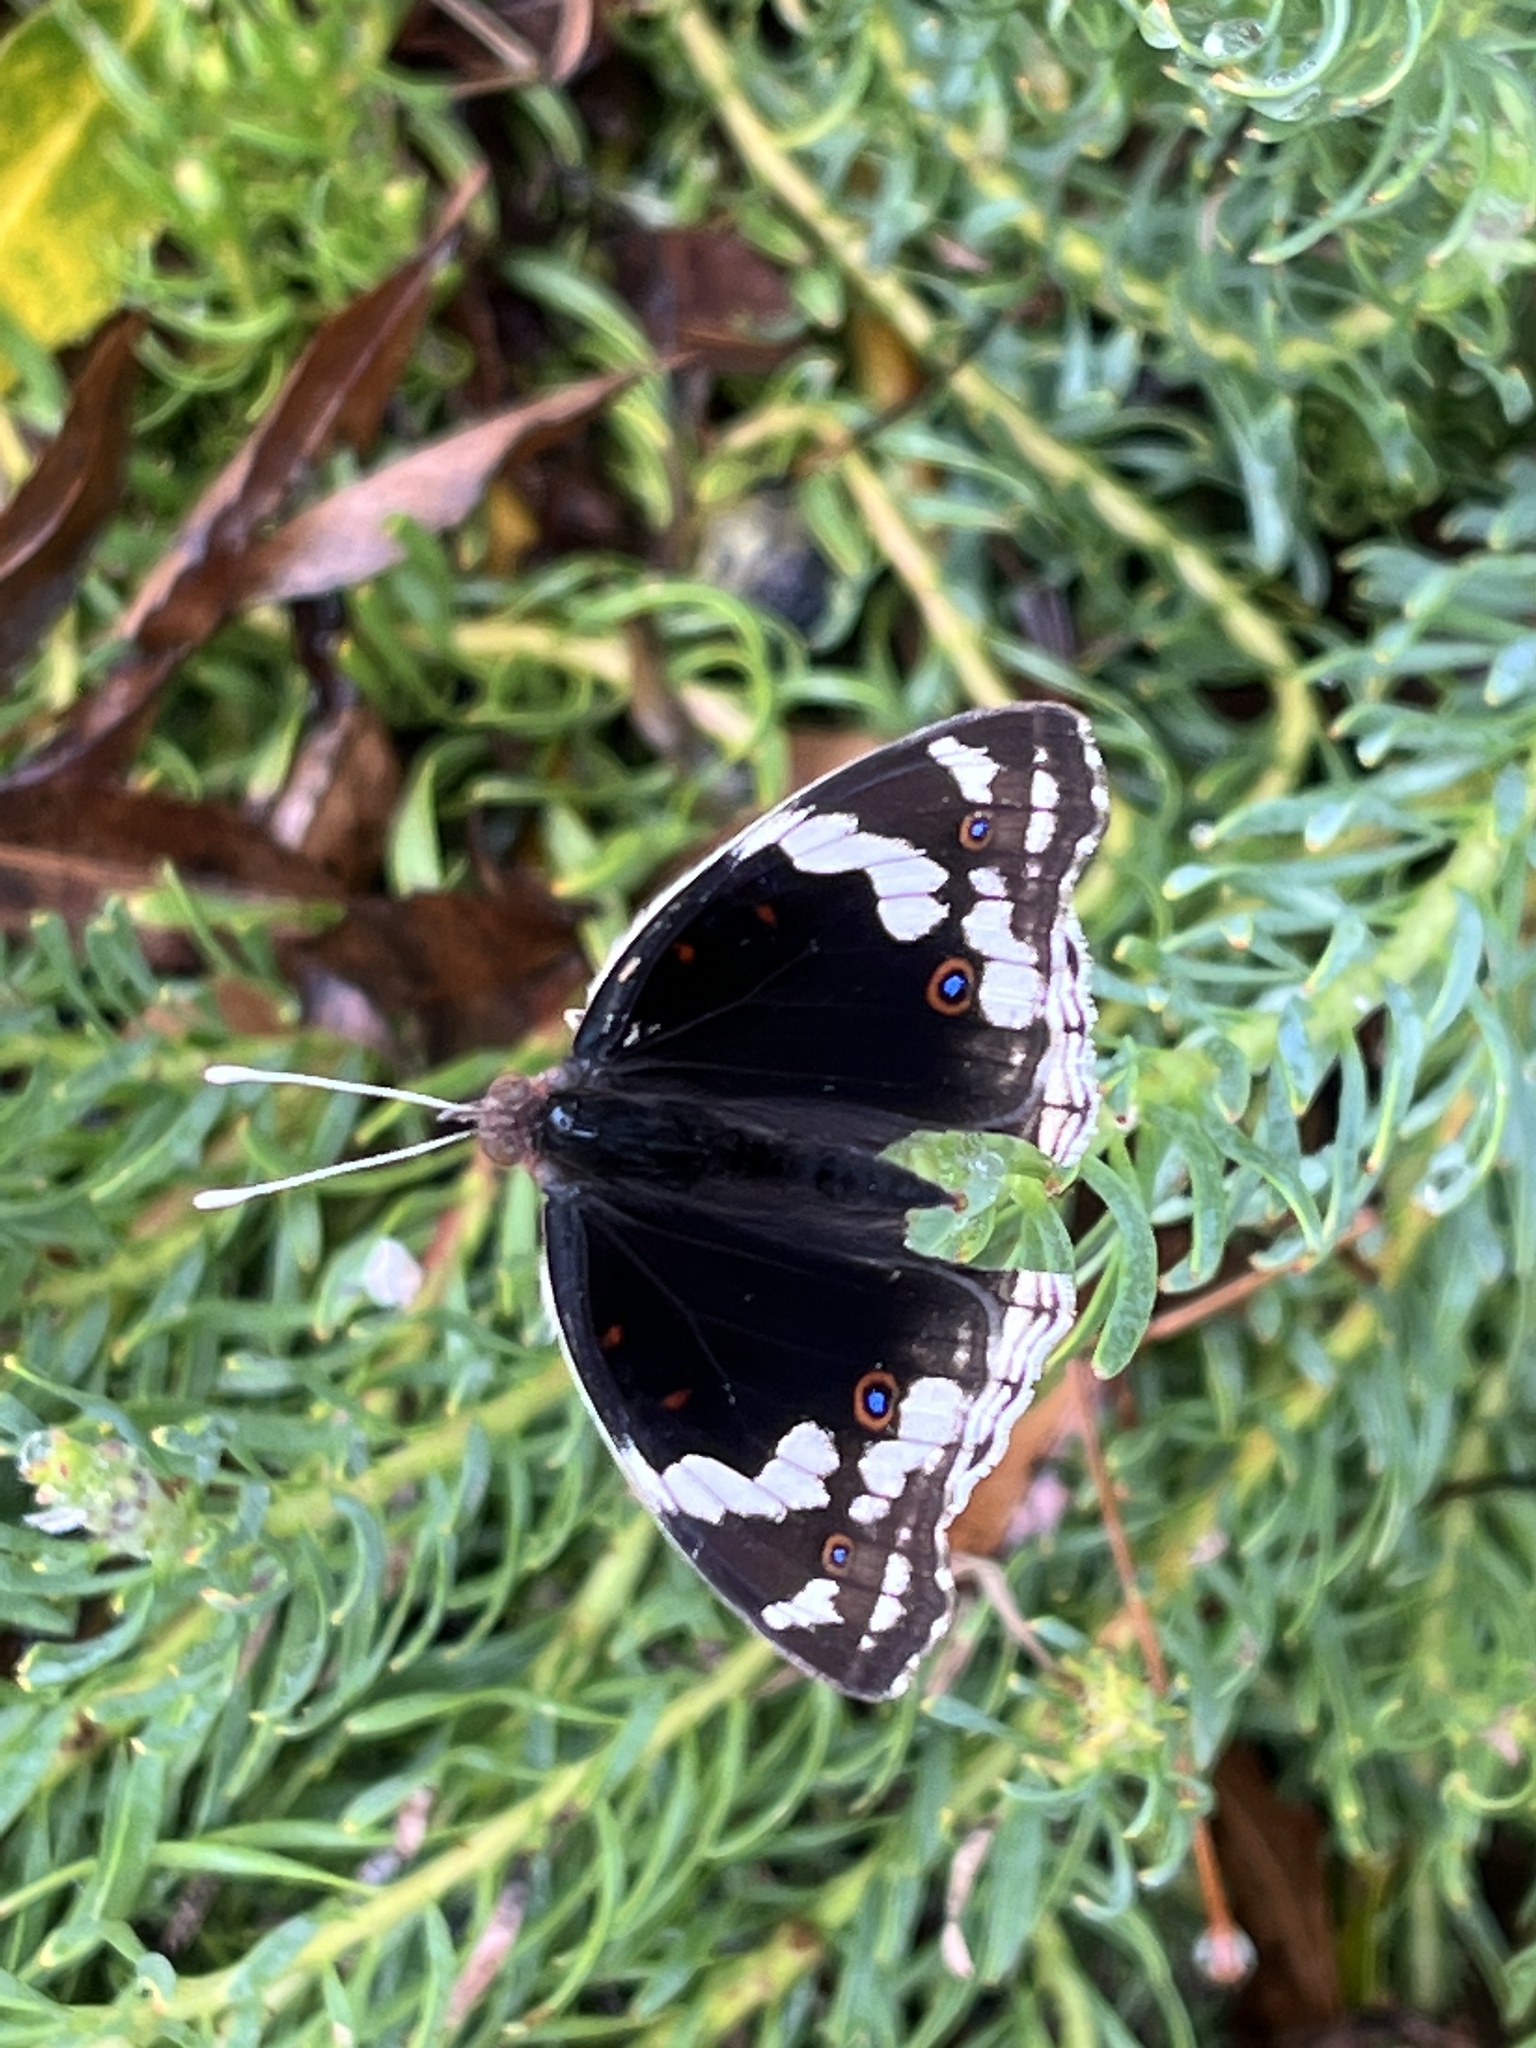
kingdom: Animalia
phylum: Arthropoda
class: Insecta
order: Lepidoptera
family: Nymphalidae
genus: Junonia
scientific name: Junonia oenone
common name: Dark blue pansy
